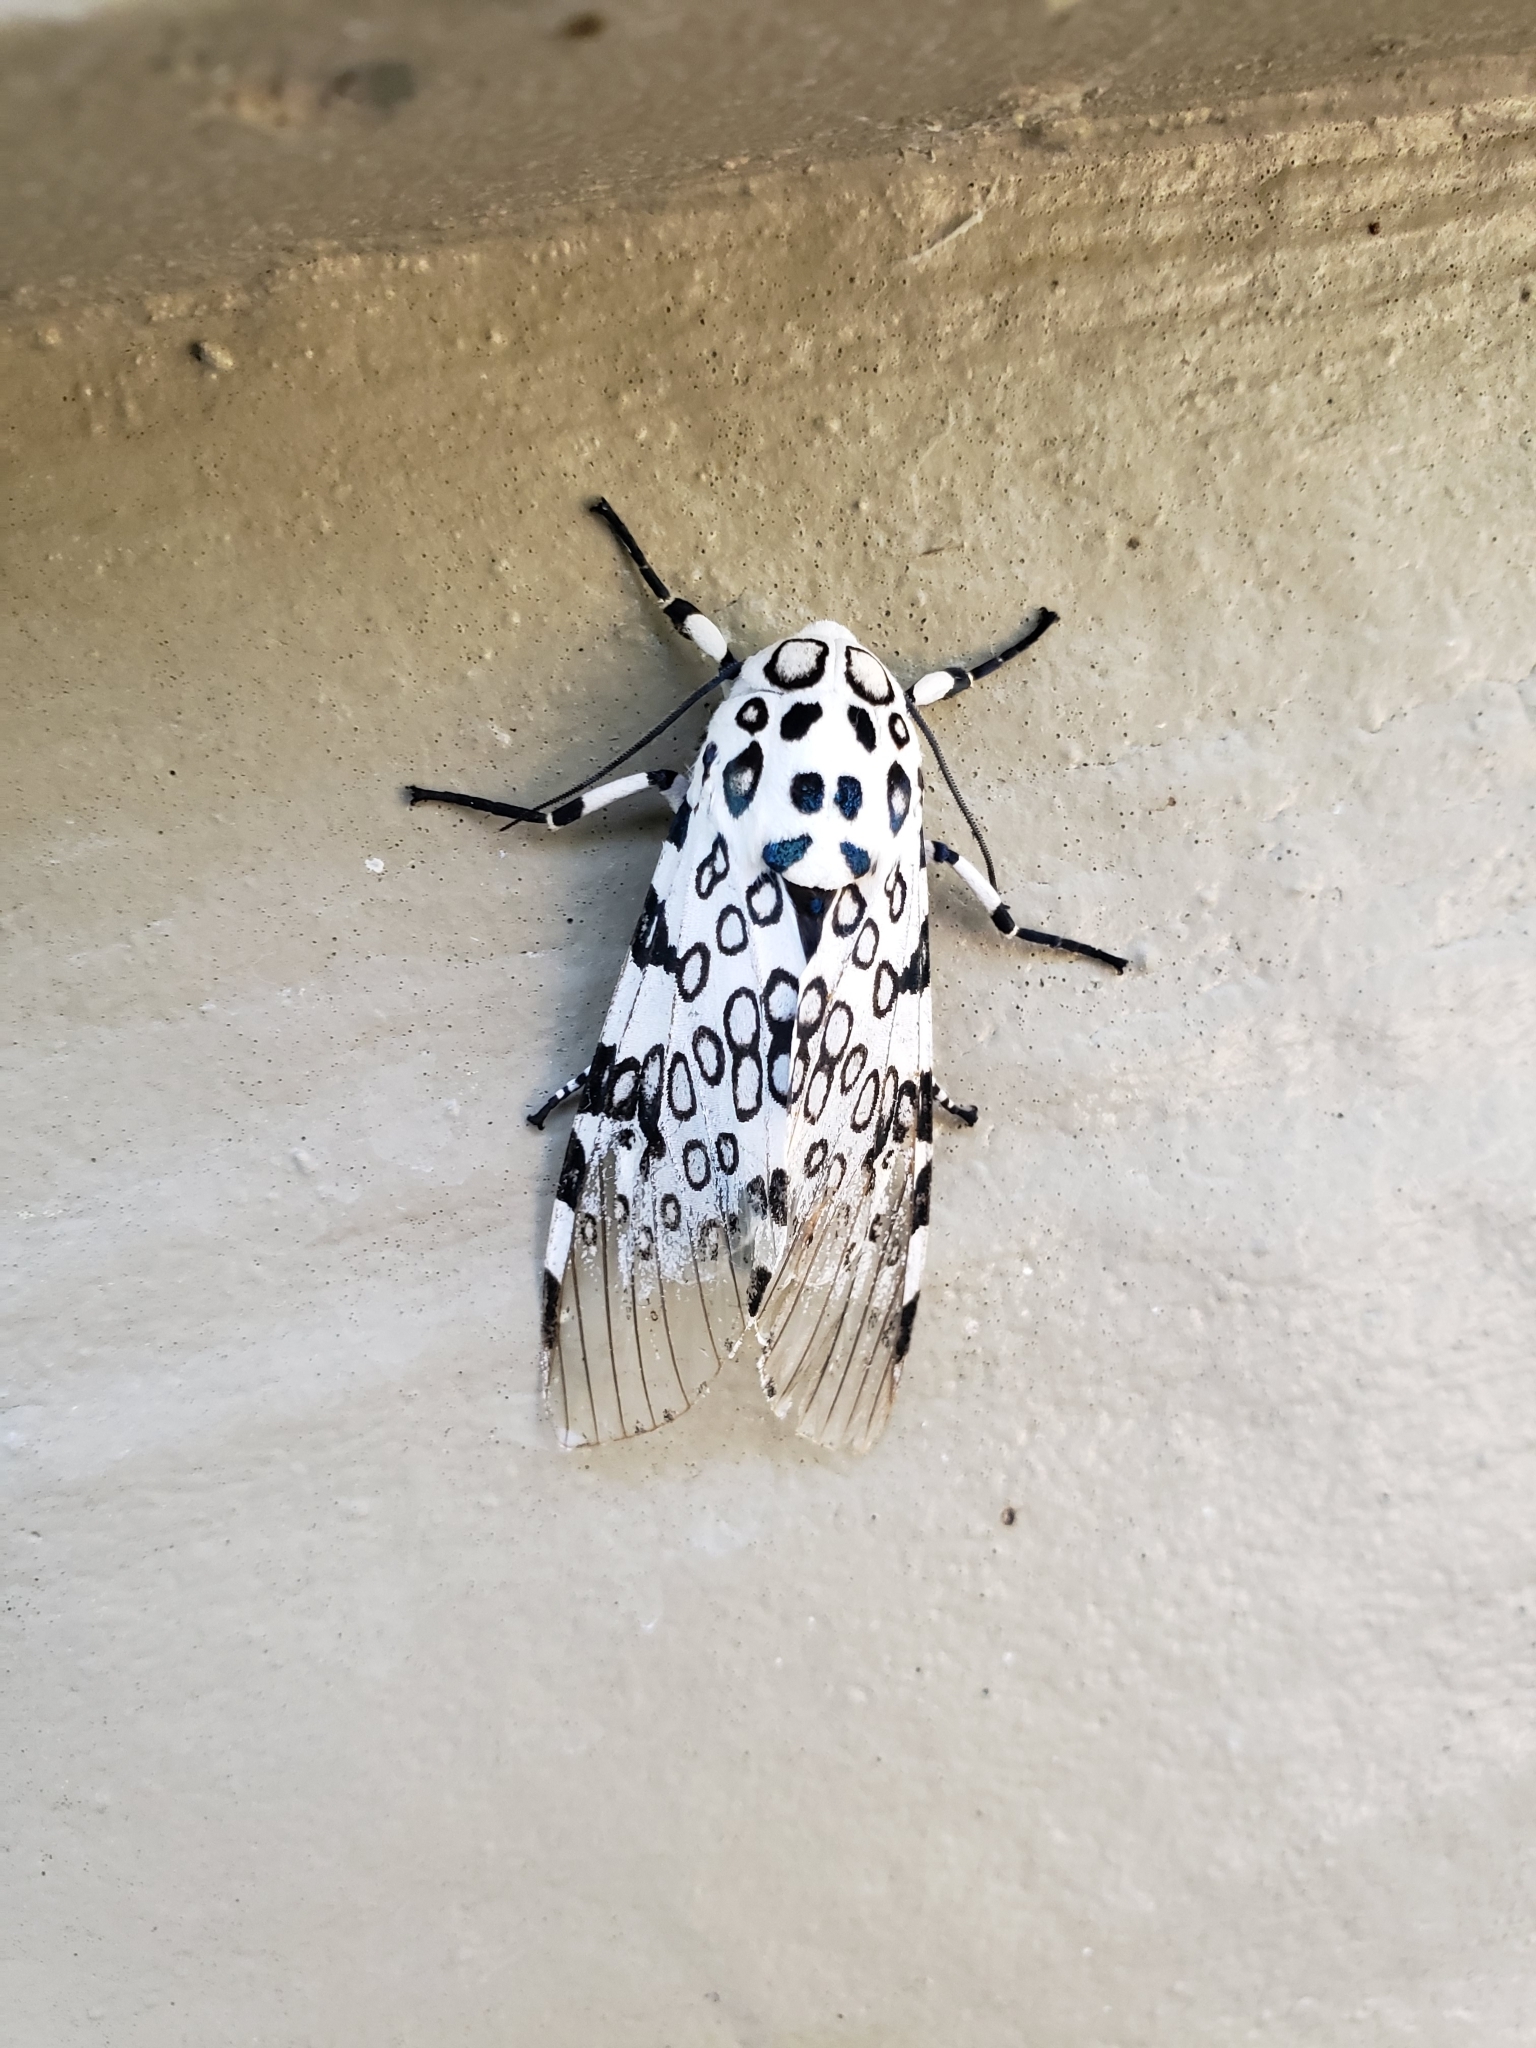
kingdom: Animalia
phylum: Arthropoda
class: Insecta
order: Lepidoptera
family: Erebidae
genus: Hypercompe
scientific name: Hypercompe scribonia
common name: Giant leopard moth
